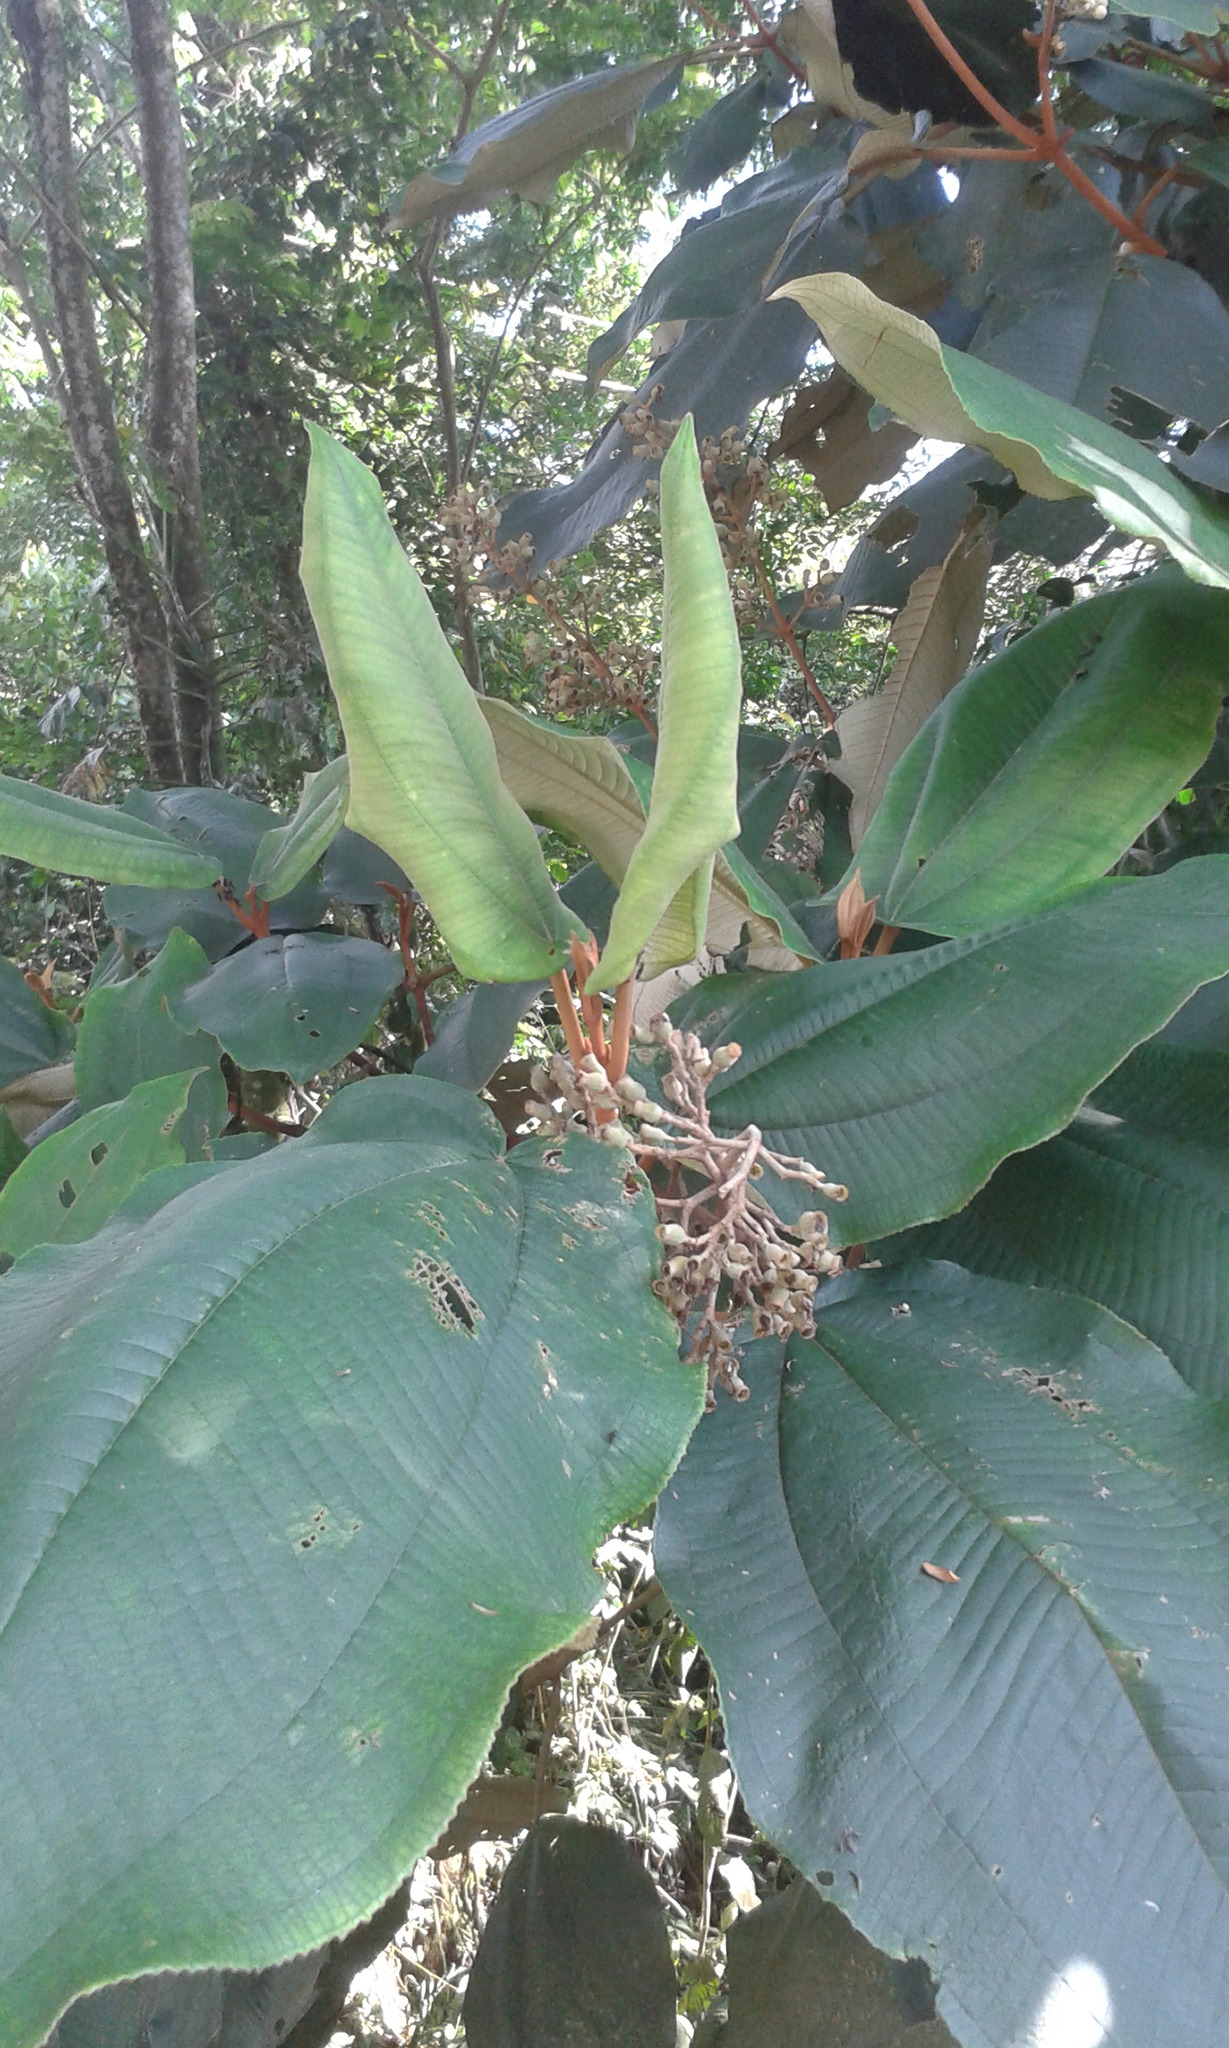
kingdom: Plantae
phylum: Tracheophyta
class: Magnoliopsida
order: Myrtales
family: Melastomataceae
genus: Miconia
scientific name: Miconia amazonica
